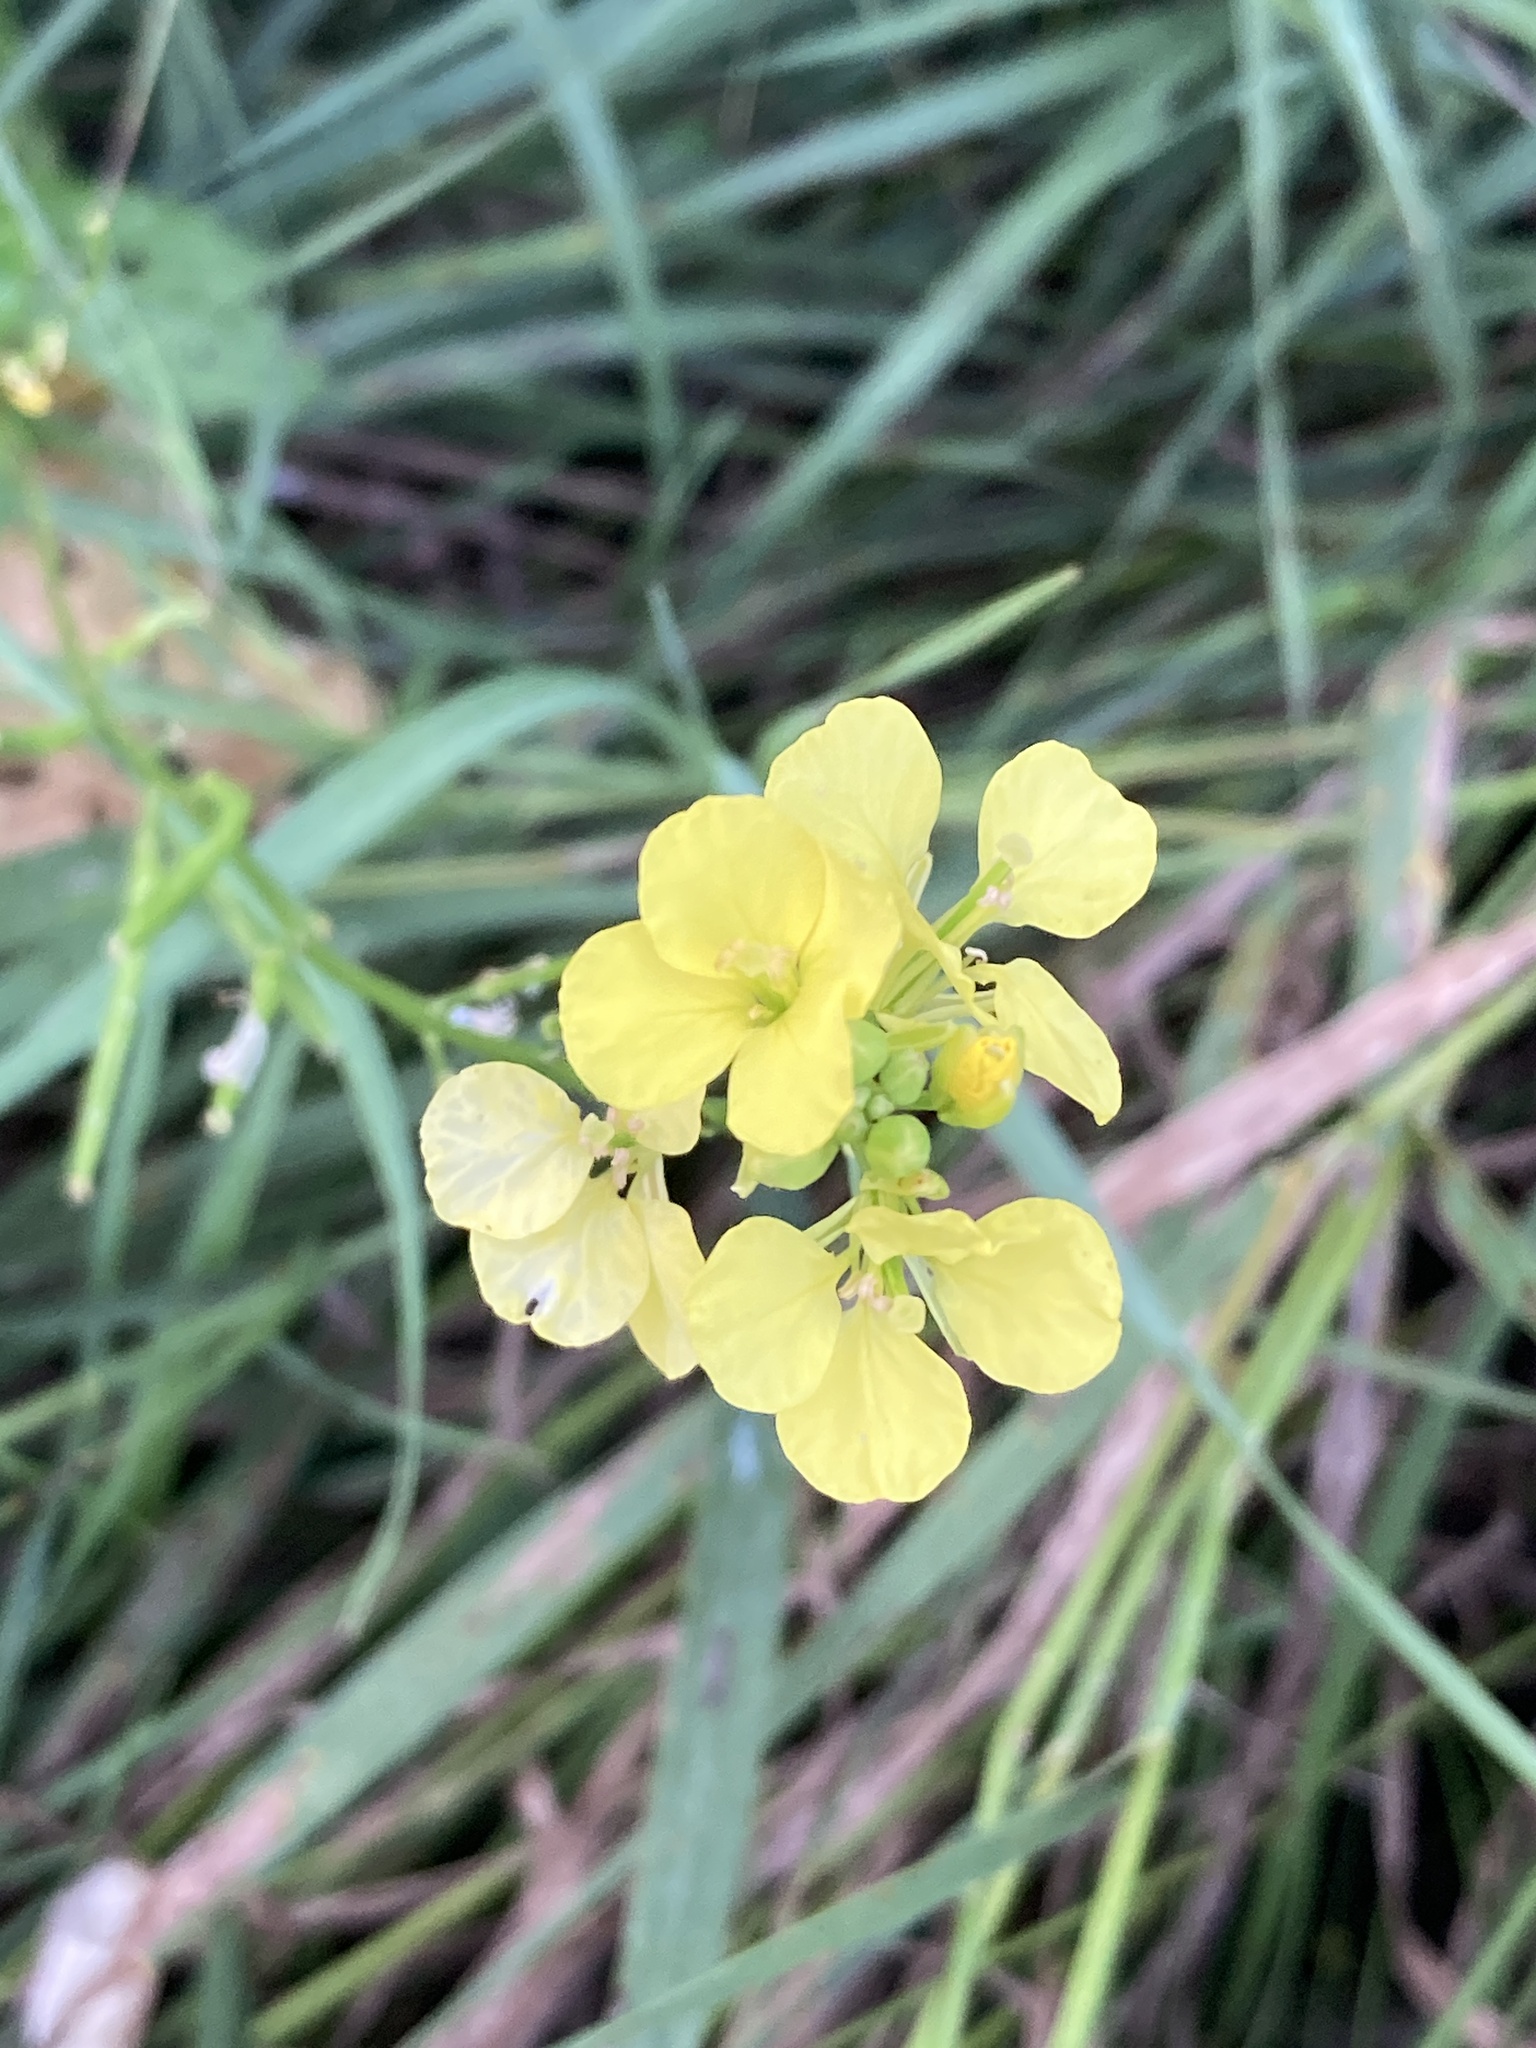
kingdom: Plantae
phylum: Tracheophyta
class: Magnoliopsida
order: Brassicales
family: Brassicaceae
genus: Sinapis
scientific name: Sinapis arvensis
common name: Charlock
